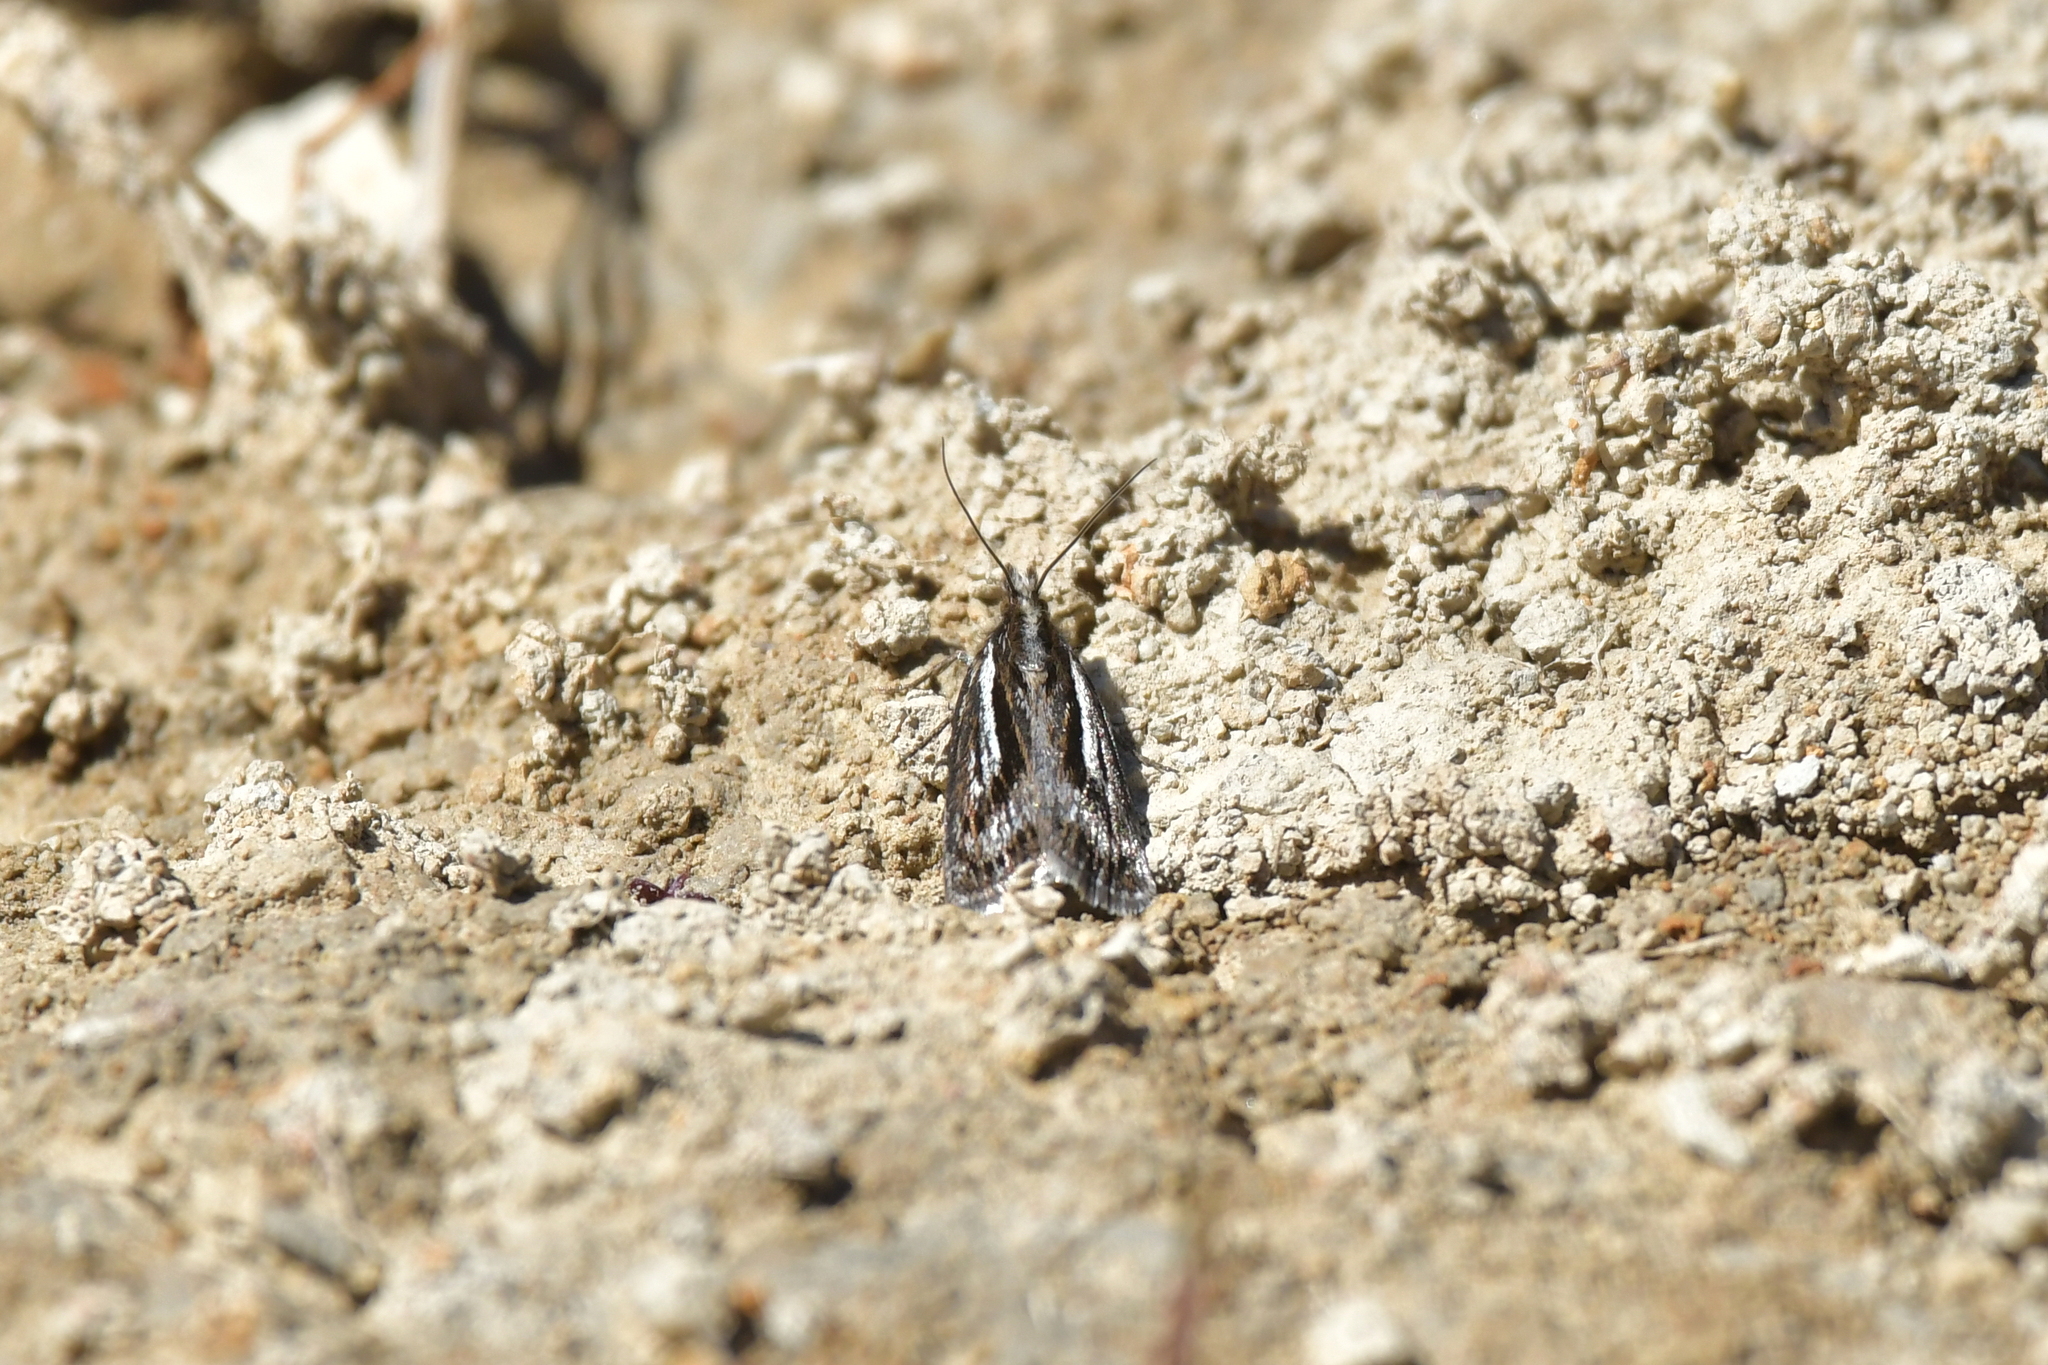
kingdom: Animalia
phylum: Arthropoda
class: Insecta
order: Lepidoptera
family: Crambidae
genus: Orocrambus
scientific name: Orocrambus machaeristes
